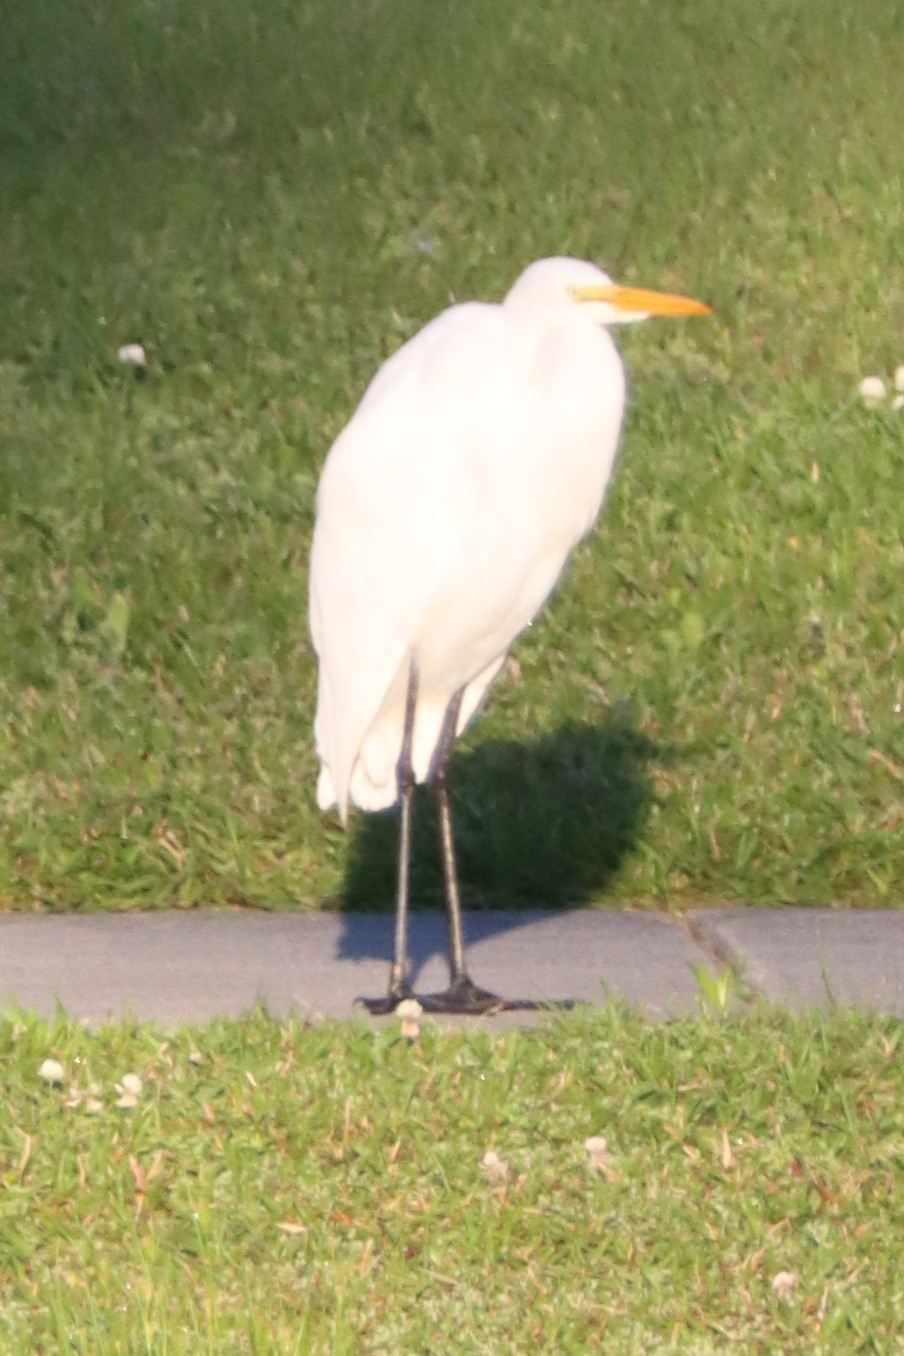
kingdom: Animalia
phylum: Chordata
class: Aves
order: Pelecaniformes
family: Ardeidae
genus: Ardea
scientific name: Ardea alba
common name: Great egret
